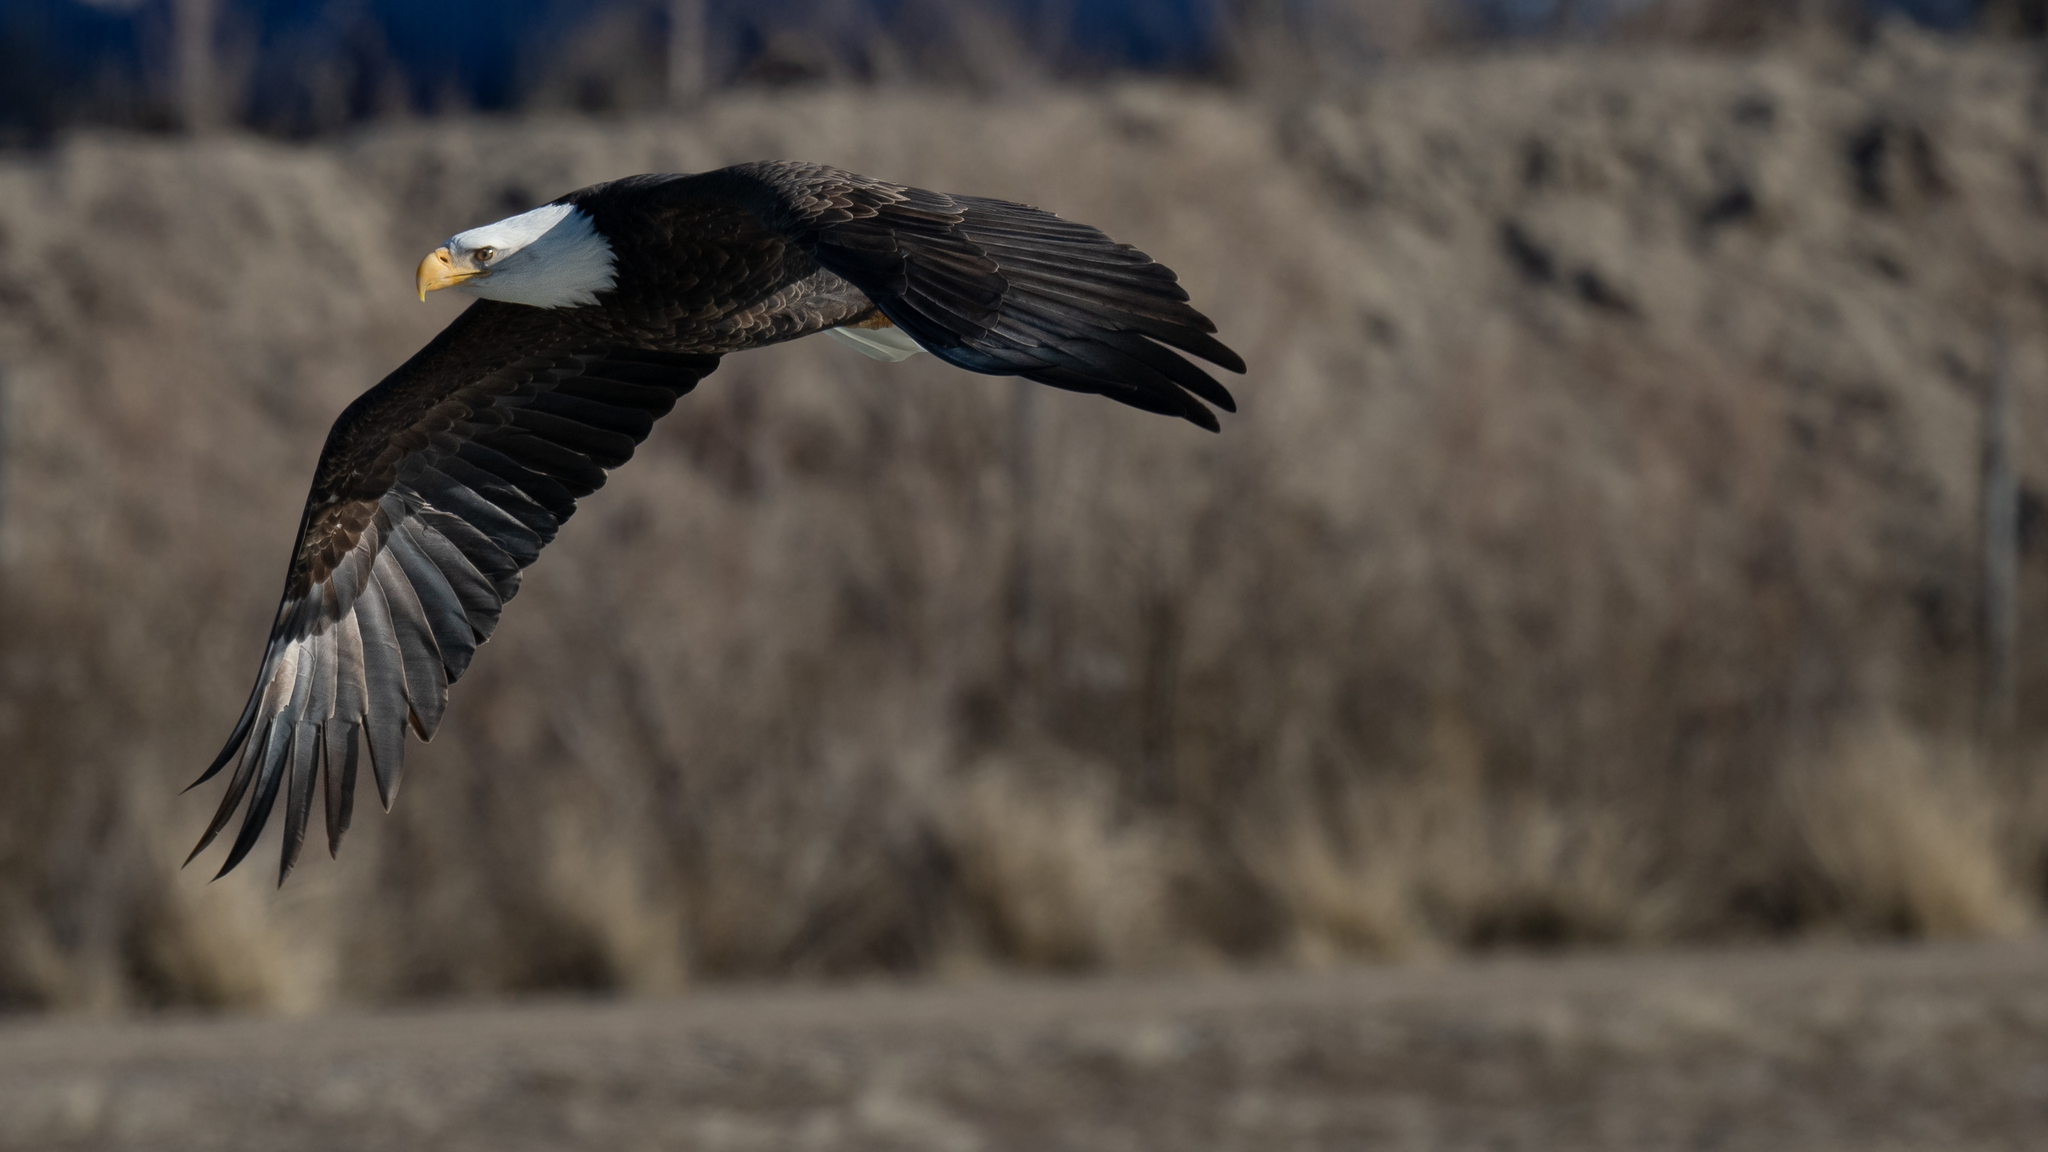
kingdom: Animalia
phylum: Chordata
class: Aves
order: Accipitriformes
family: Accipitridae
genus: Haliaeetus
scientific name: Haliaeetus leucocephalus
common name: Bald eagle
